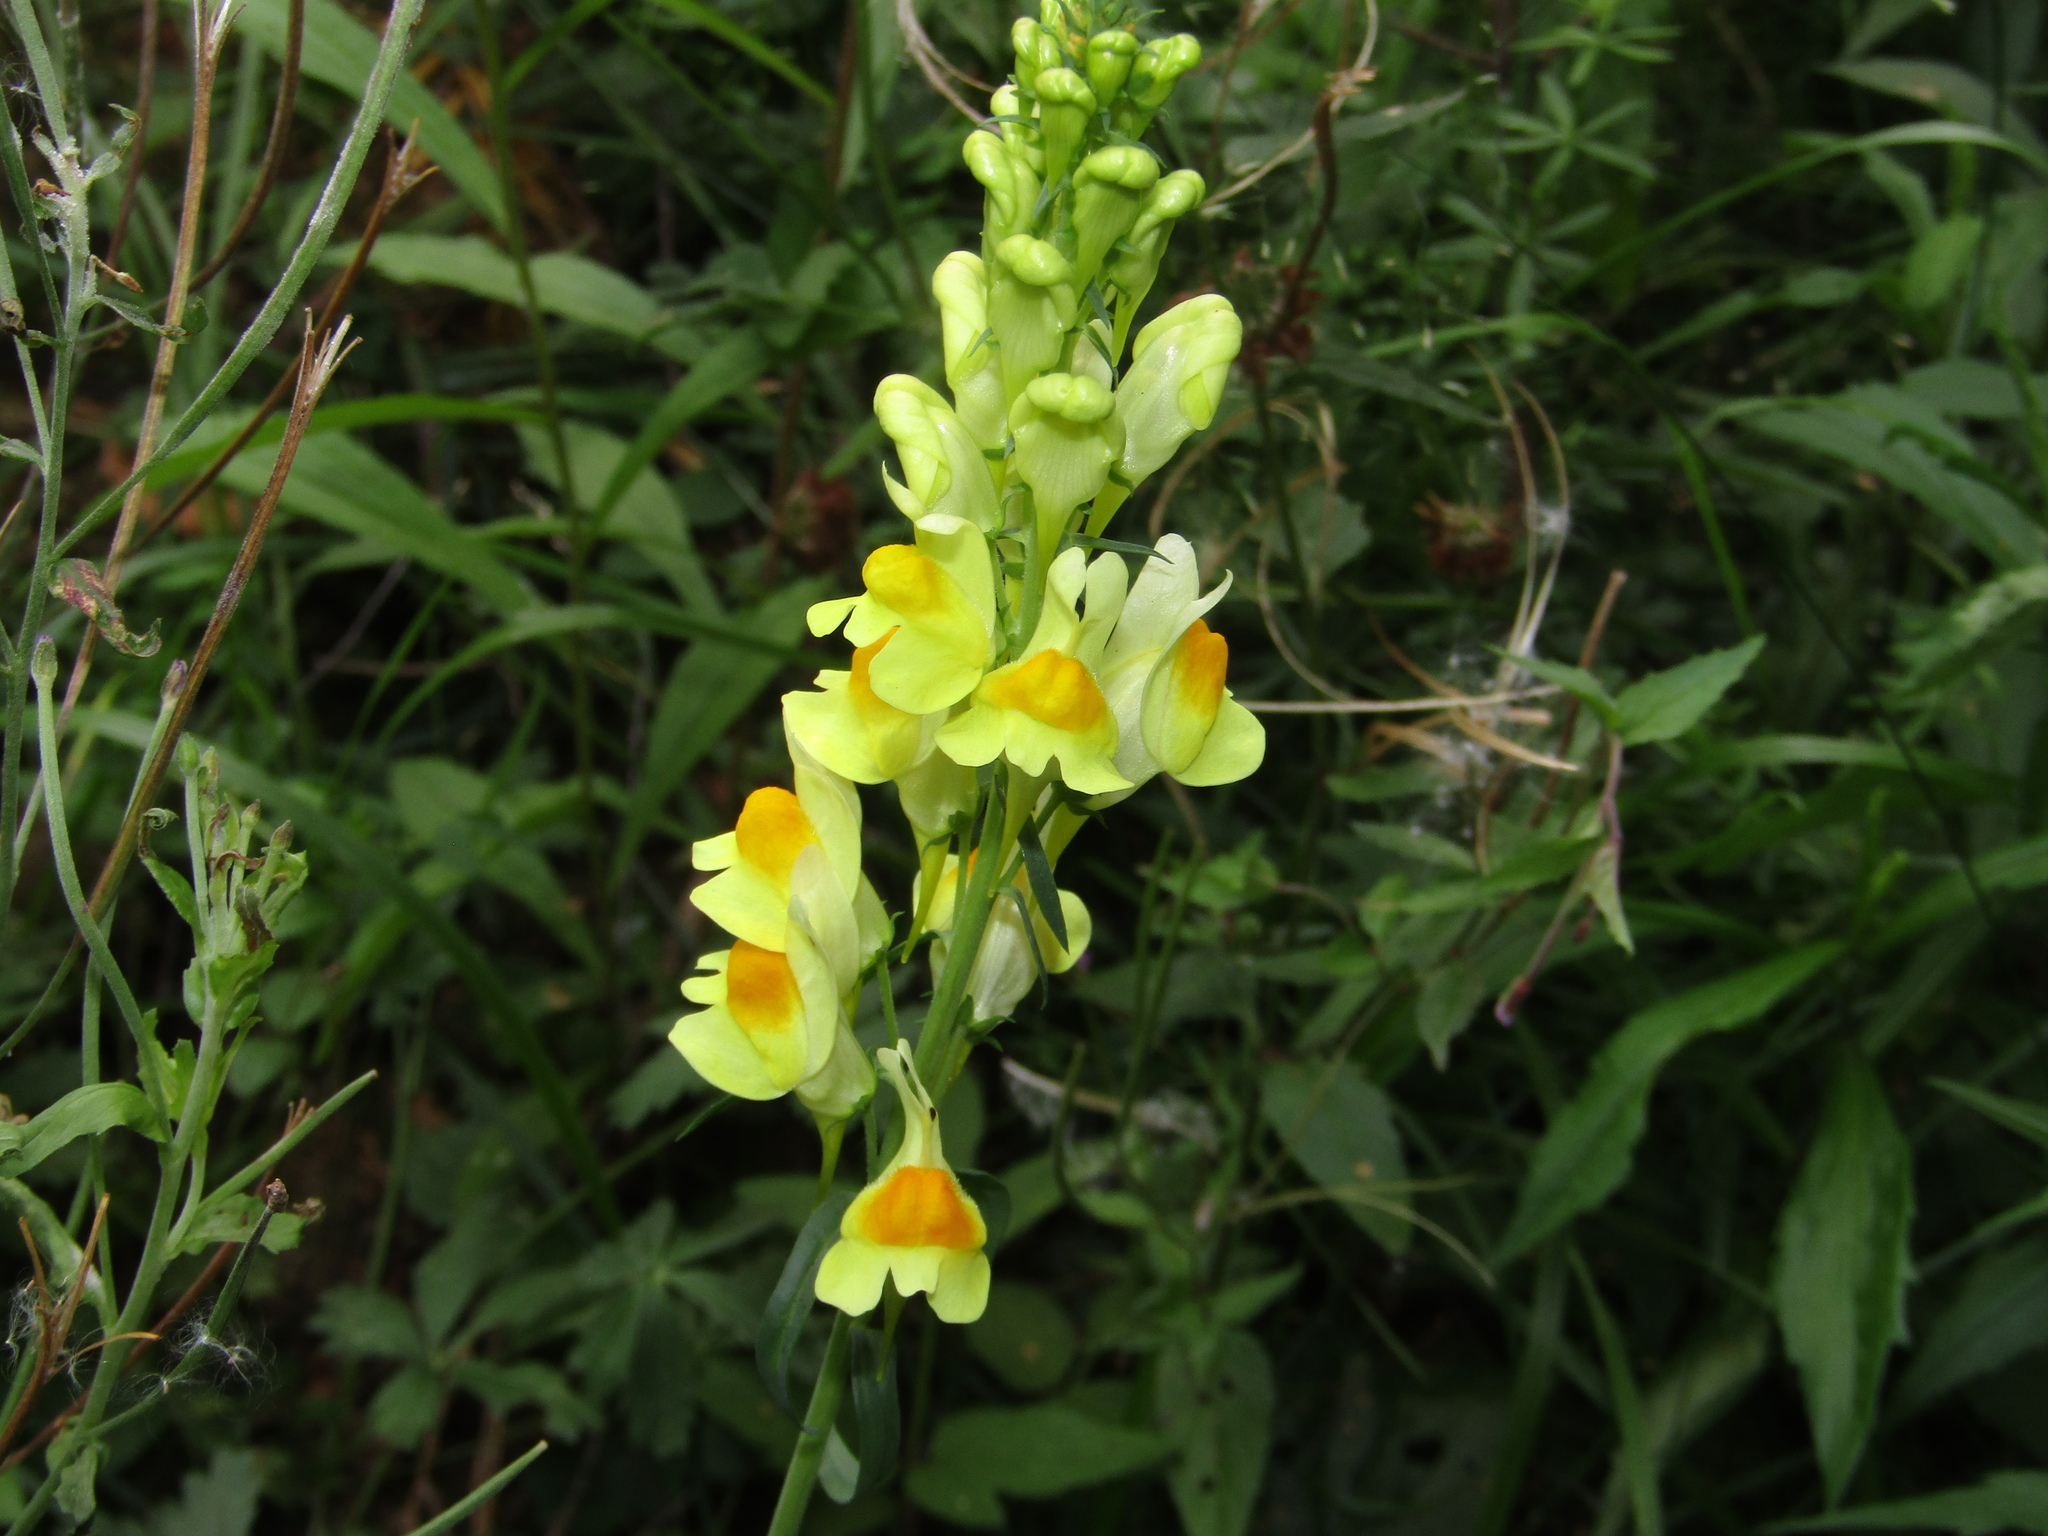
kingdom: Plantae
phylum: Tracheophyta
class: Magnoliopsida
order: Lamiales
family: Plantaginaceae
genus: Linaria
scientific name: Linaria vulgaris
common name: Butter and eggs
